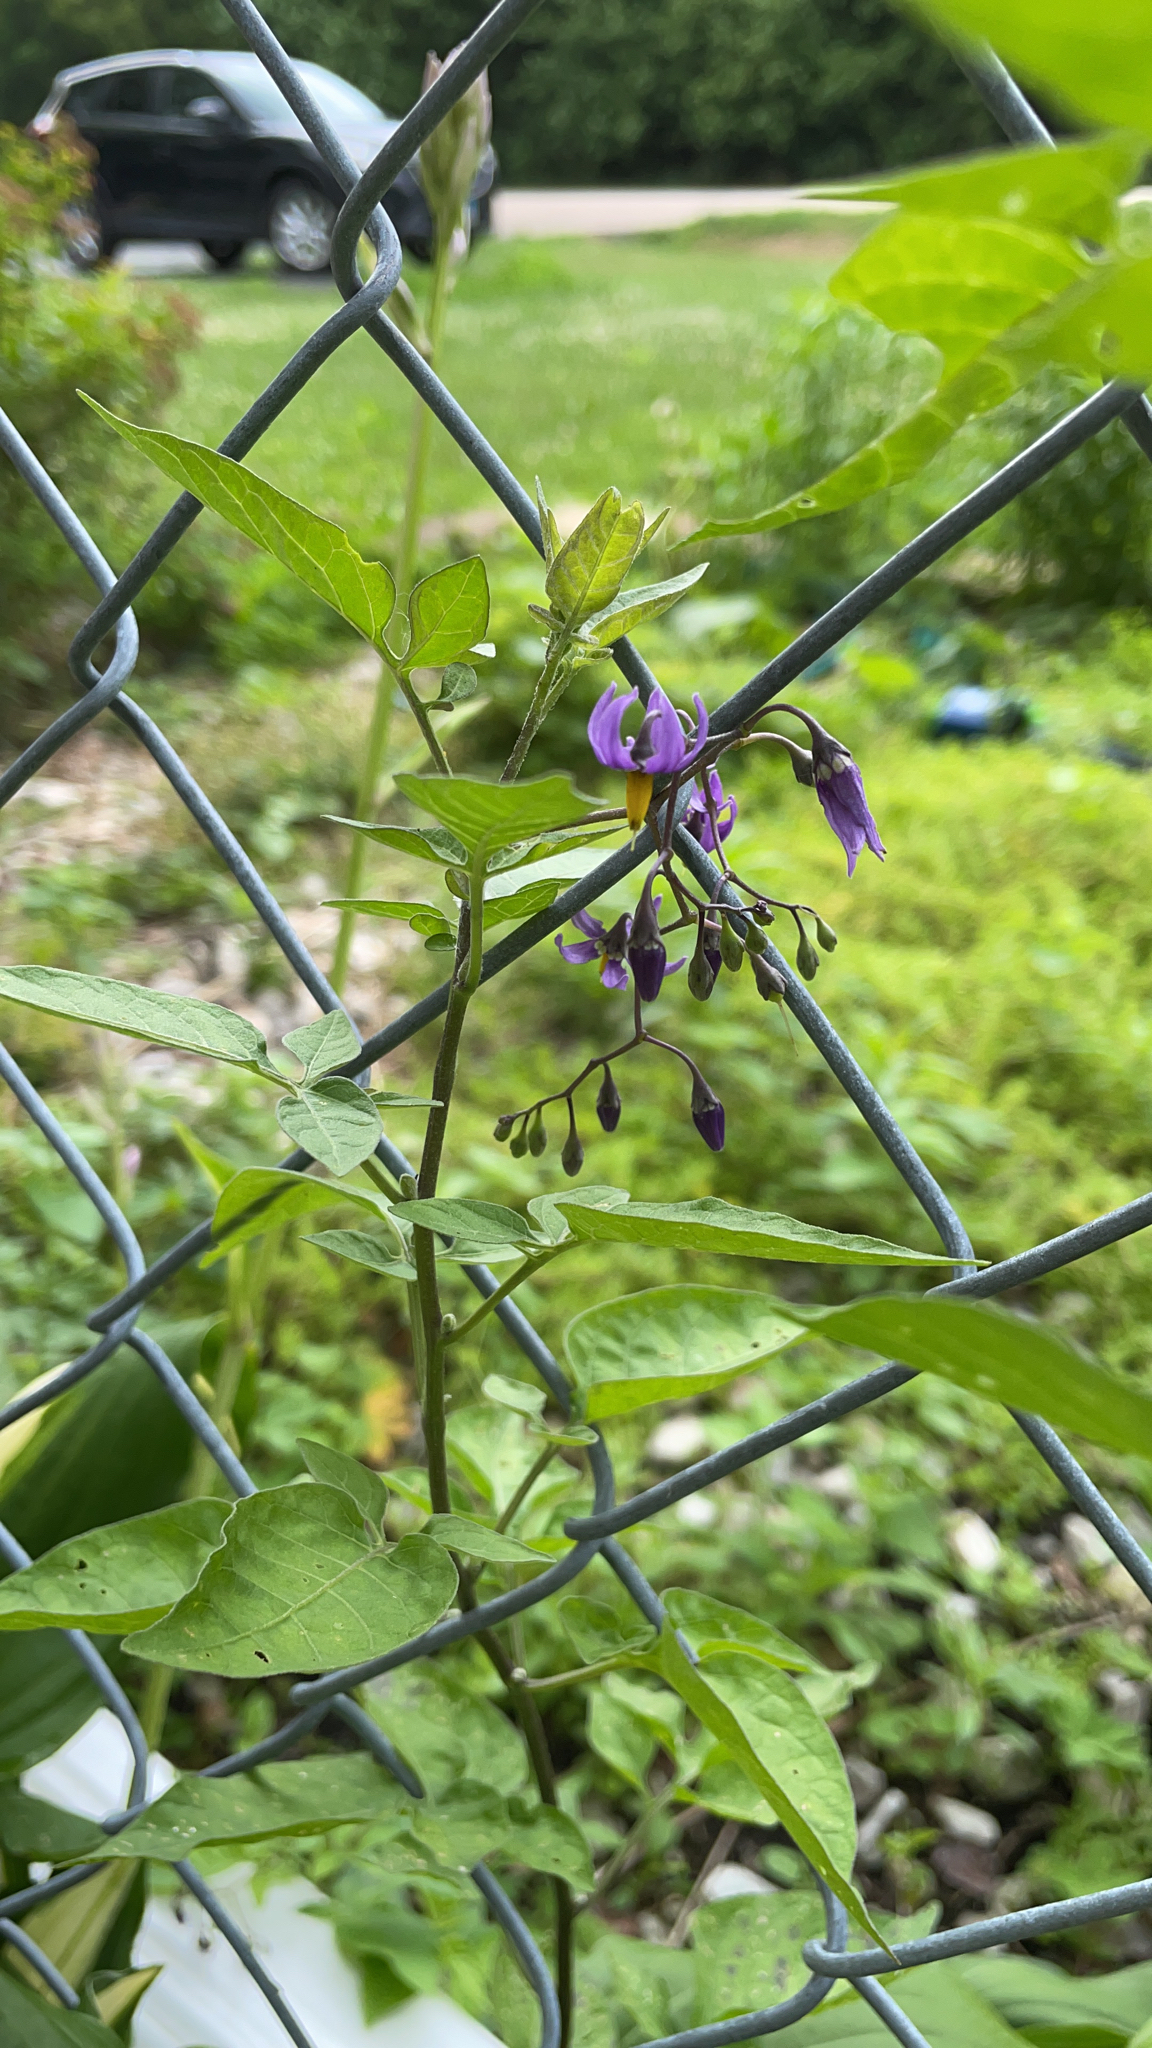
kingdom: Plantae
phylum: Tracheophyta
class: Magnoliopsida
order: Solanales
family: Solanaceae
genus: Solanum
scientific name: Solanum dulcamara
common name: Climbing nightshade
